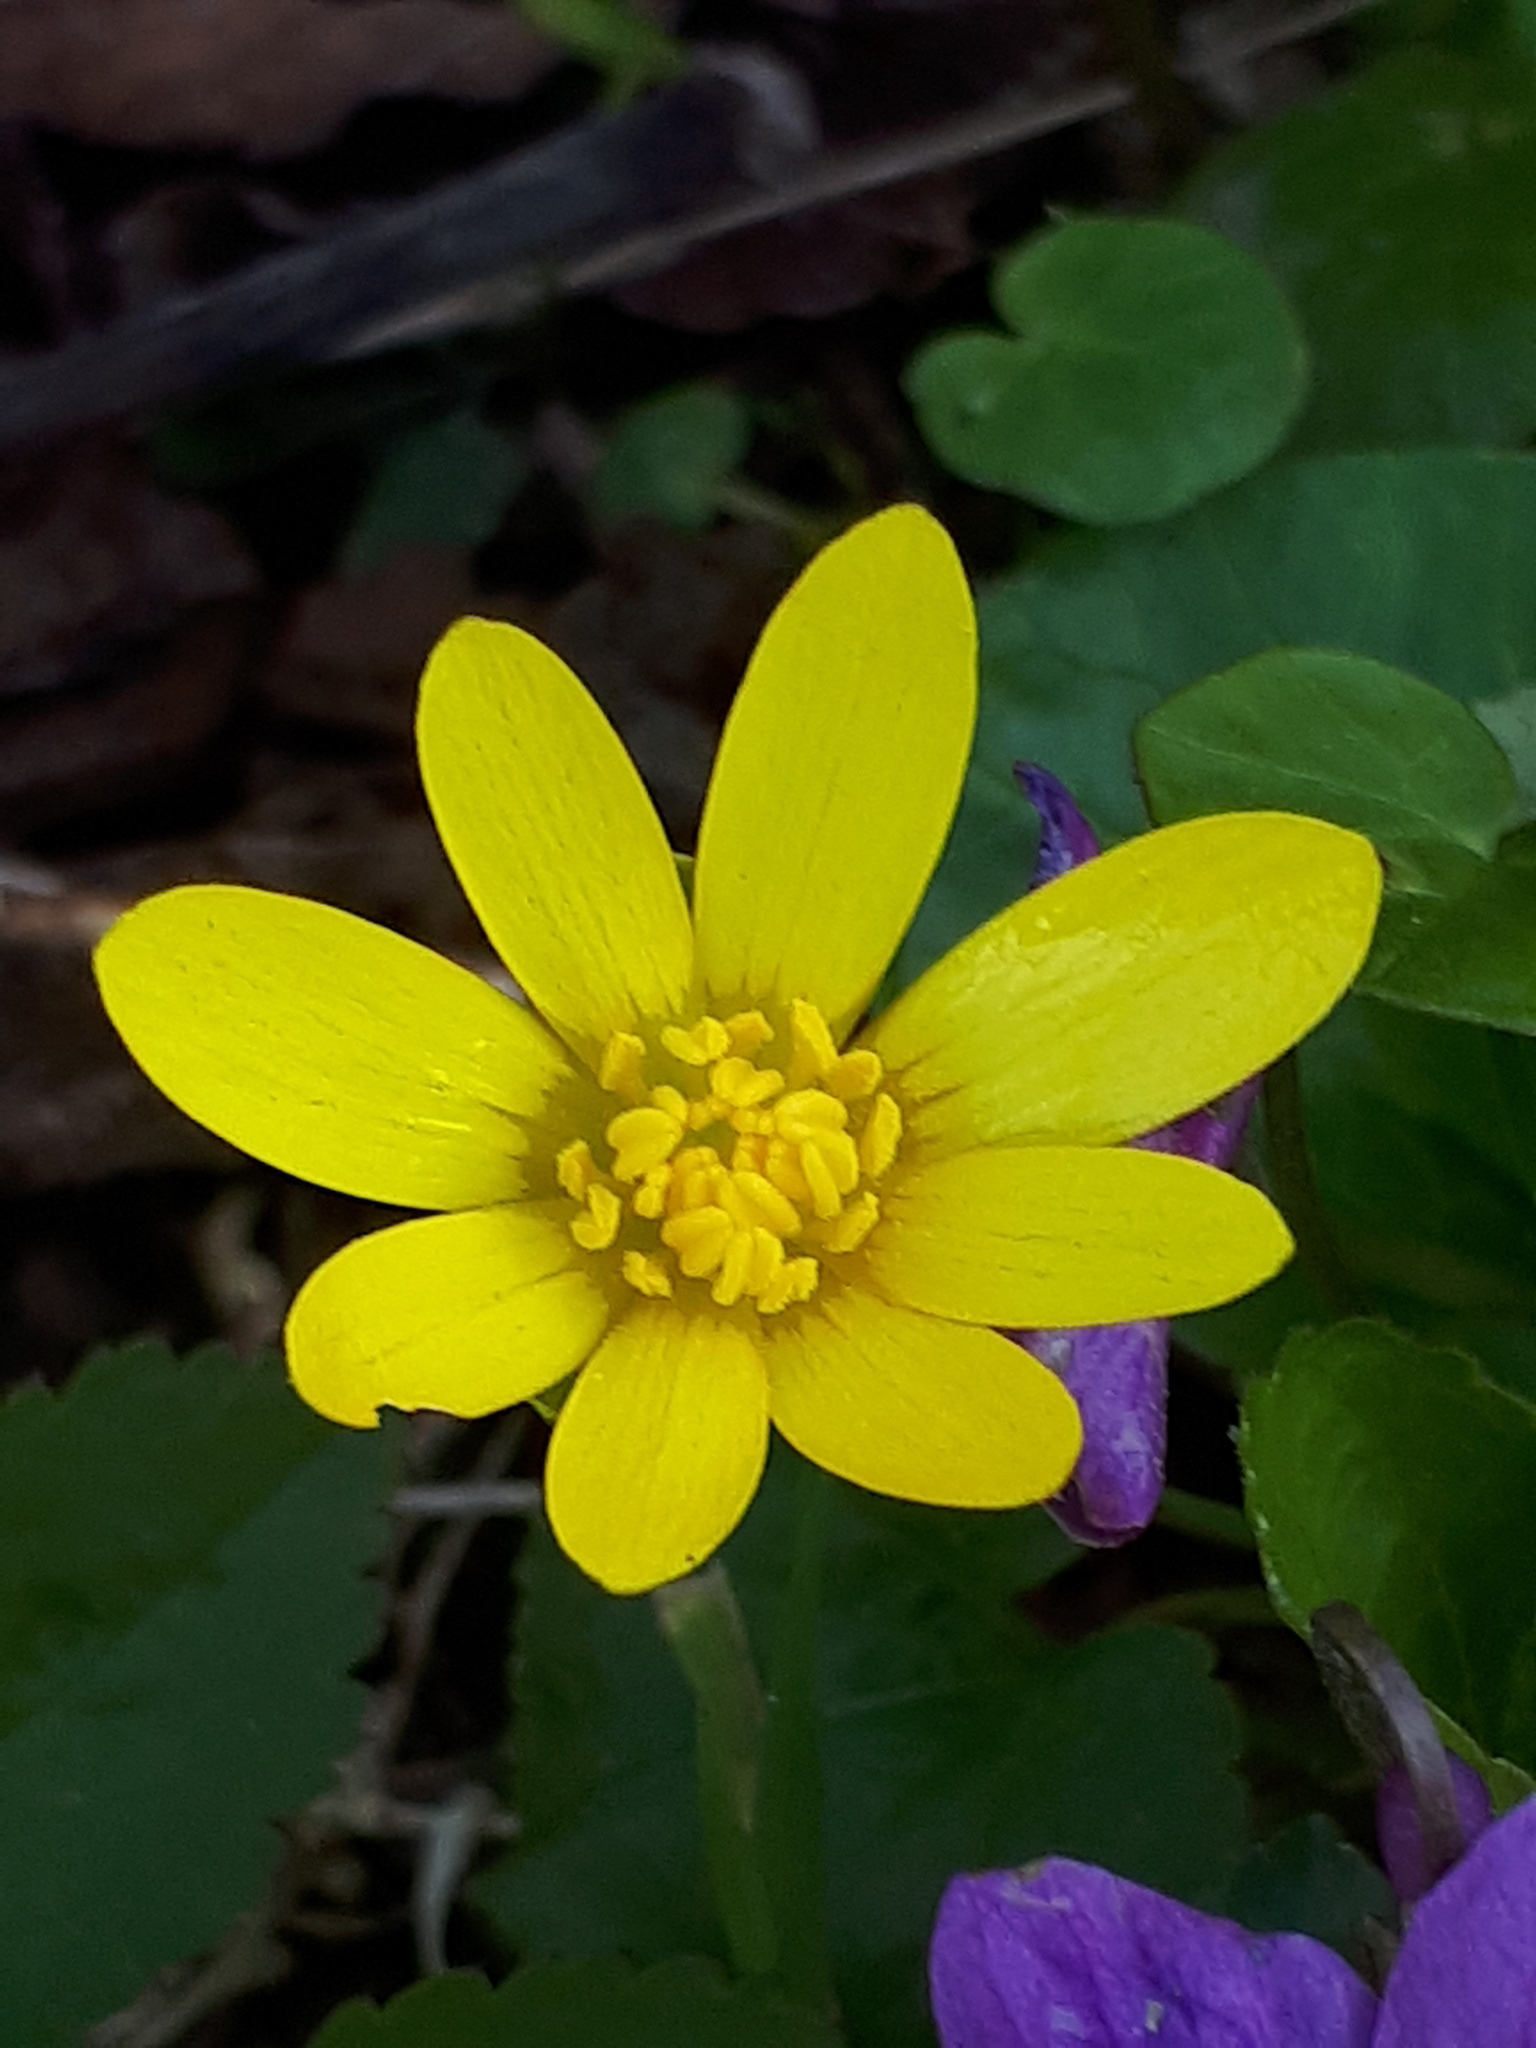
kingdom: Plantae
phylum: Tracheophyta
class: Magnoliopsida
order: Ranunculales
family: Ranunculaceae
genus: Ficaria
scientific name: Ficaria verna
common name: Lesser celandine
